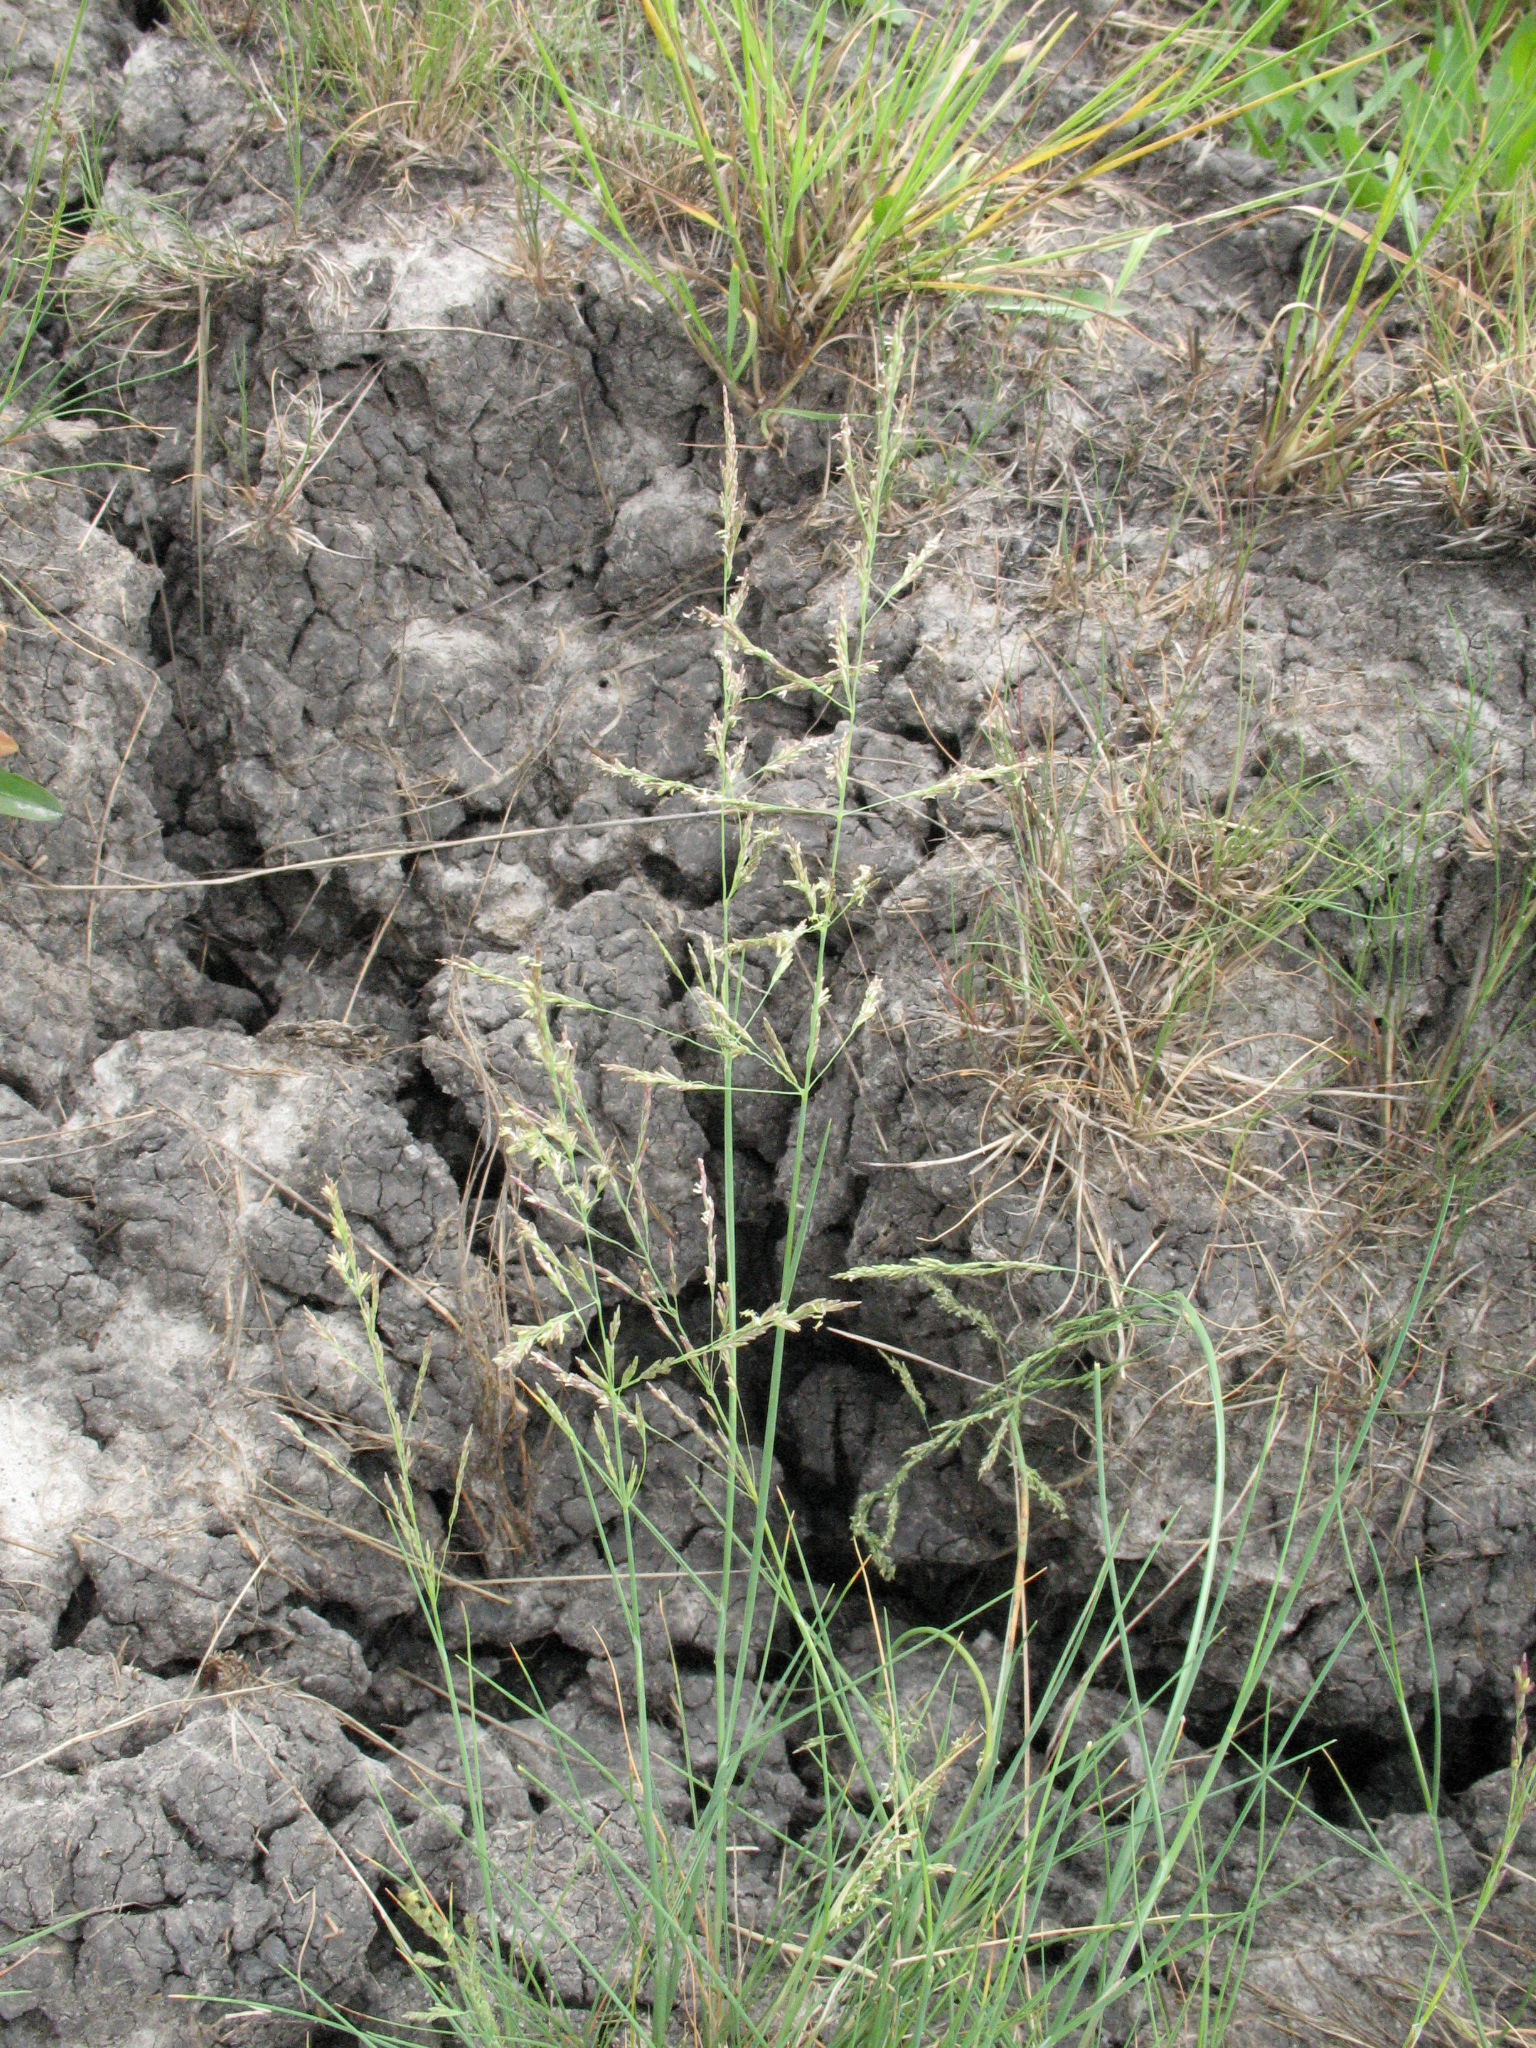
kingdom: Plantae
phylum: Tracheophyta
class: Liliopsida
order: Poales
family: Poaceae
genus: Puccinellia
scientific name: Puccinellia distans
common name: Weeping alkaligrass
